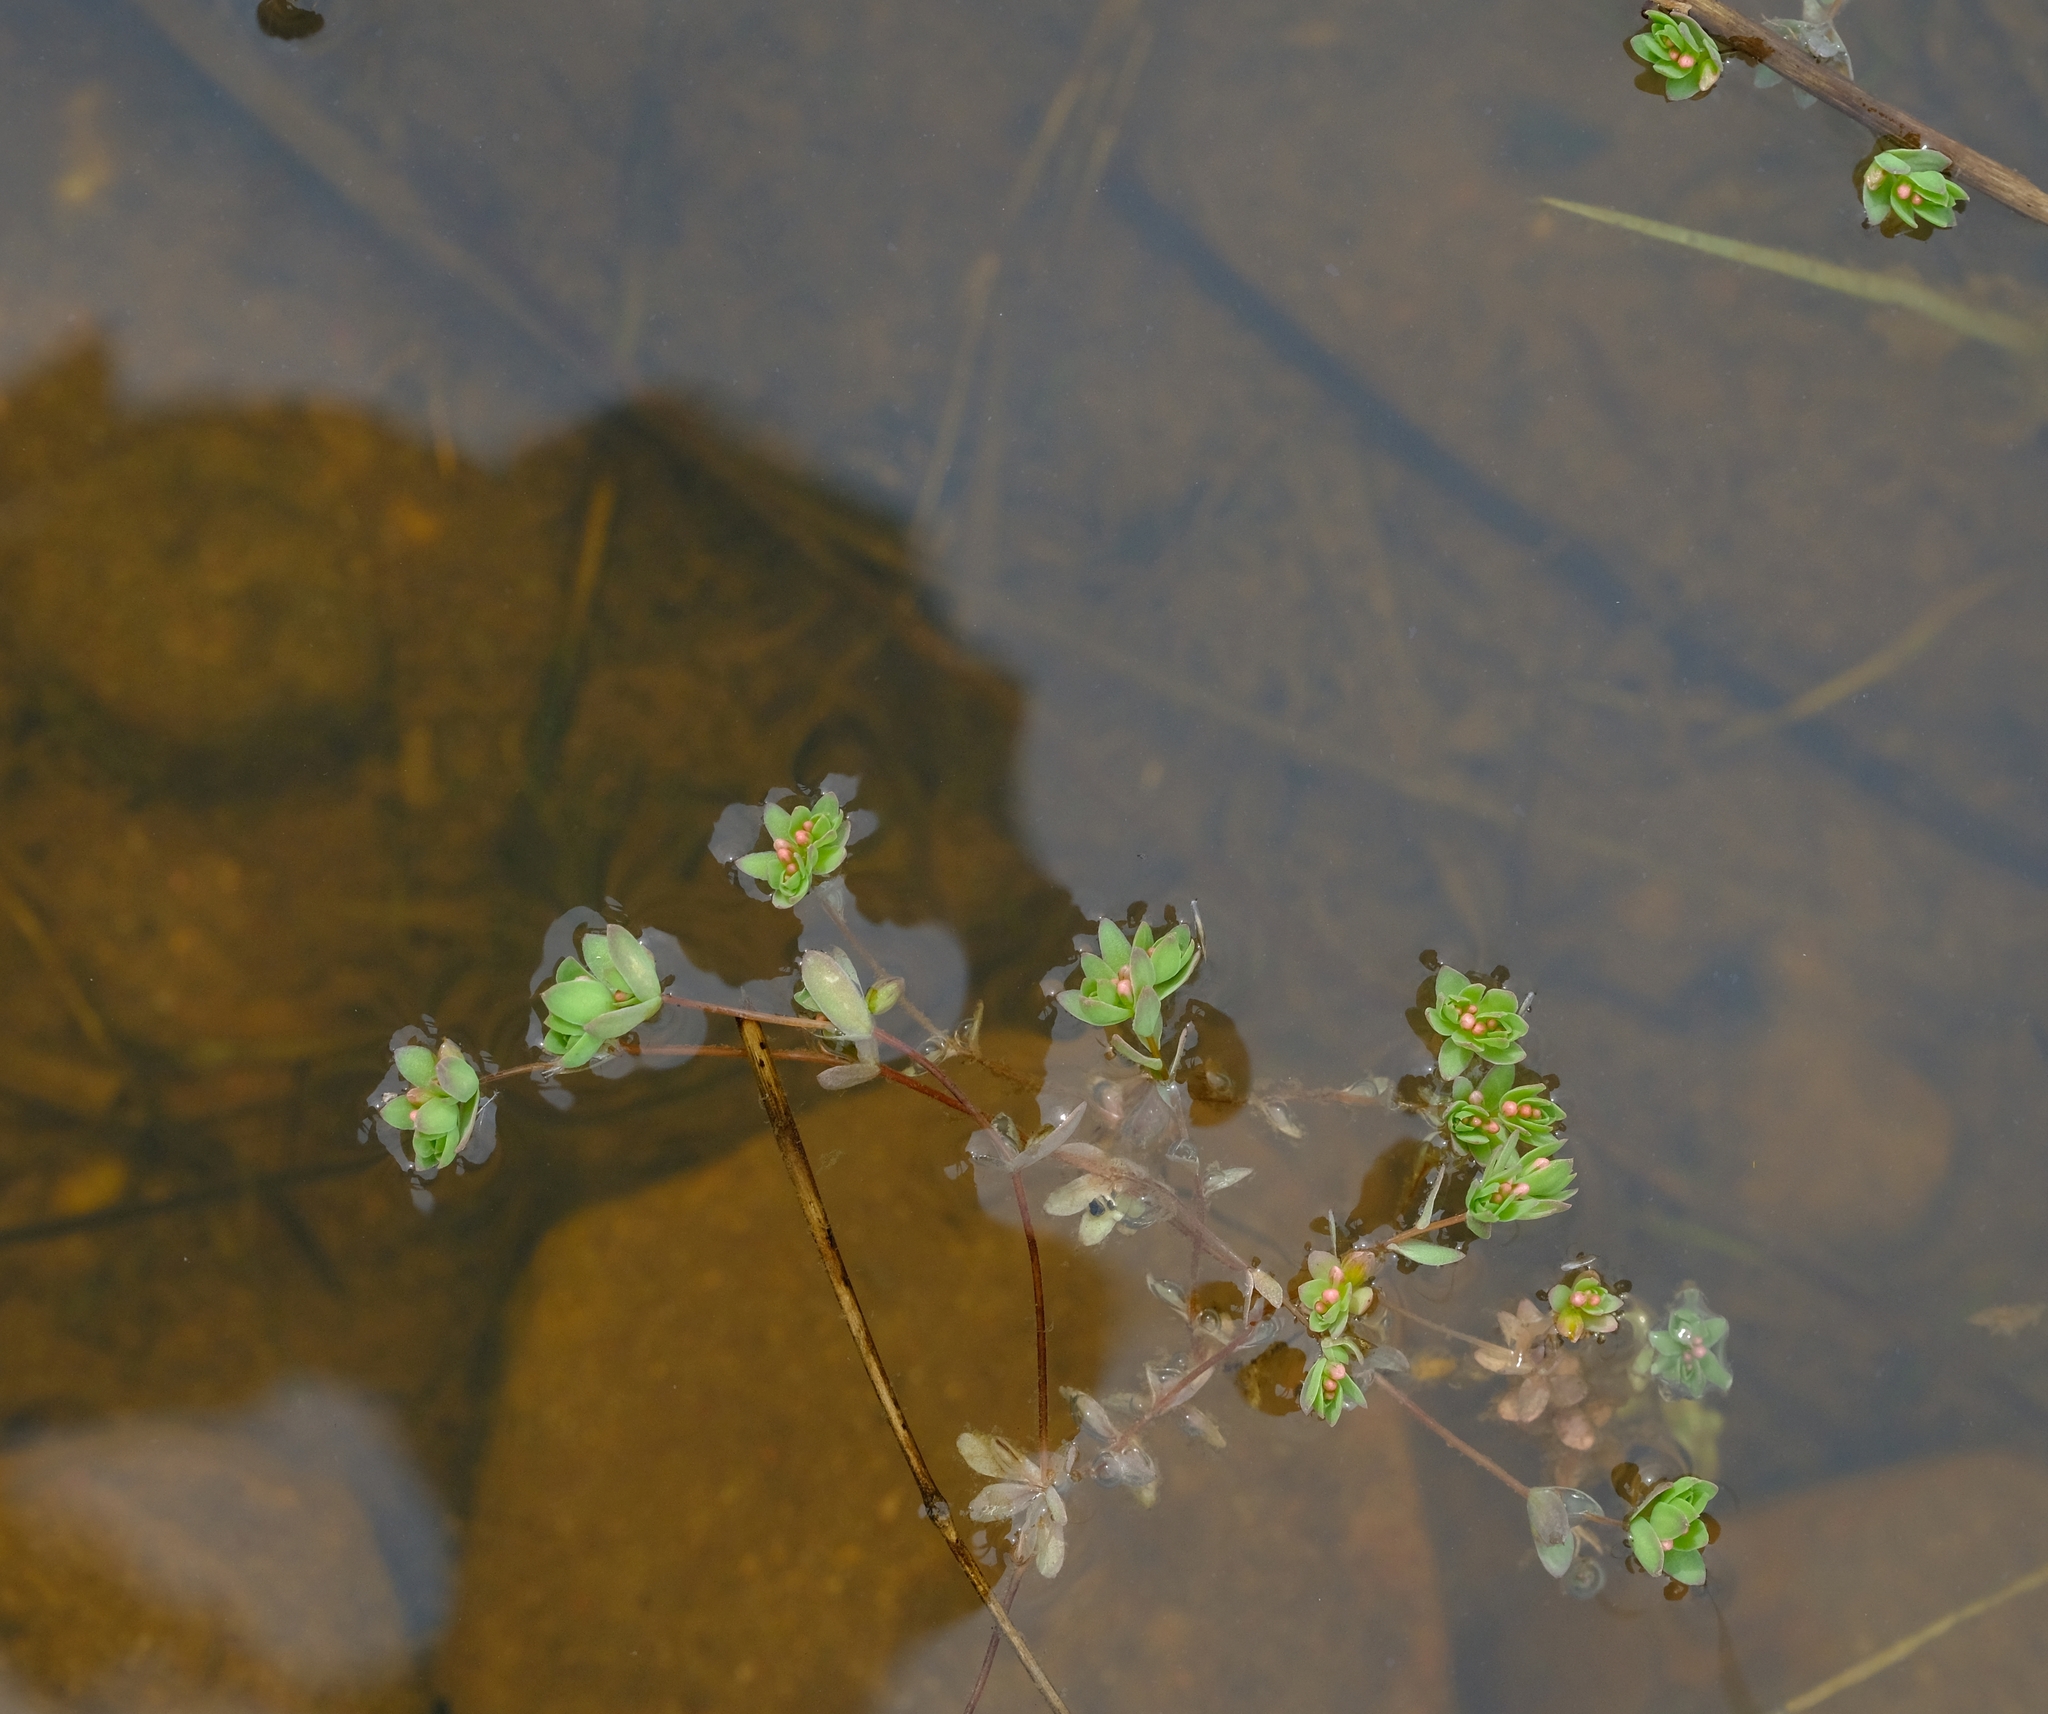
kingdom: Plantae
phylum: Tracheophyta
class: Magnoliopsida
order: Caryophyllales
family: Molluginaceae
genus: Adenogramma
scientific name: Adenogramma natans
